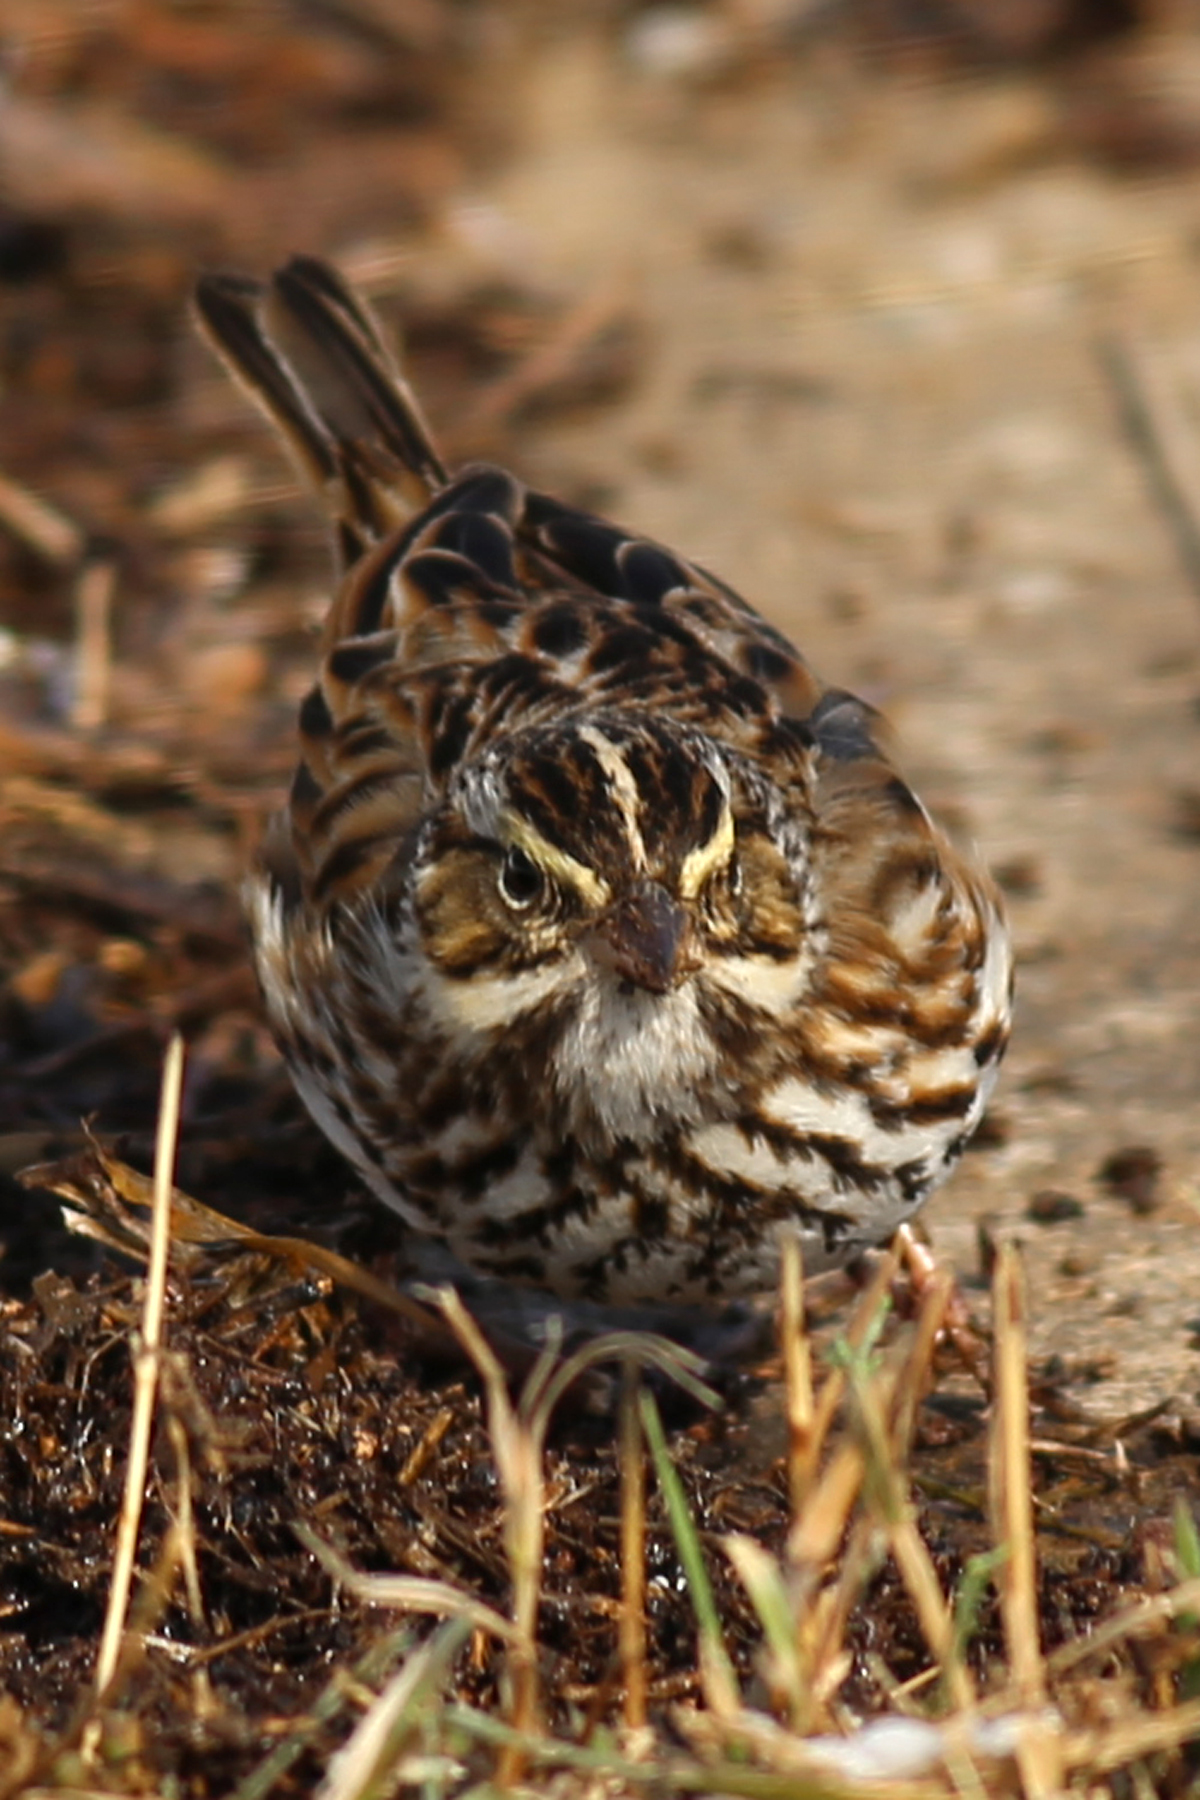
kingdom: Animalia
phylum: Chordata
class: Aves
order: Passeriformes
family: Passerellidae
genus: Passerculus
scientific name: Passerculus sandwichensis
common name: Savannah sparrow
